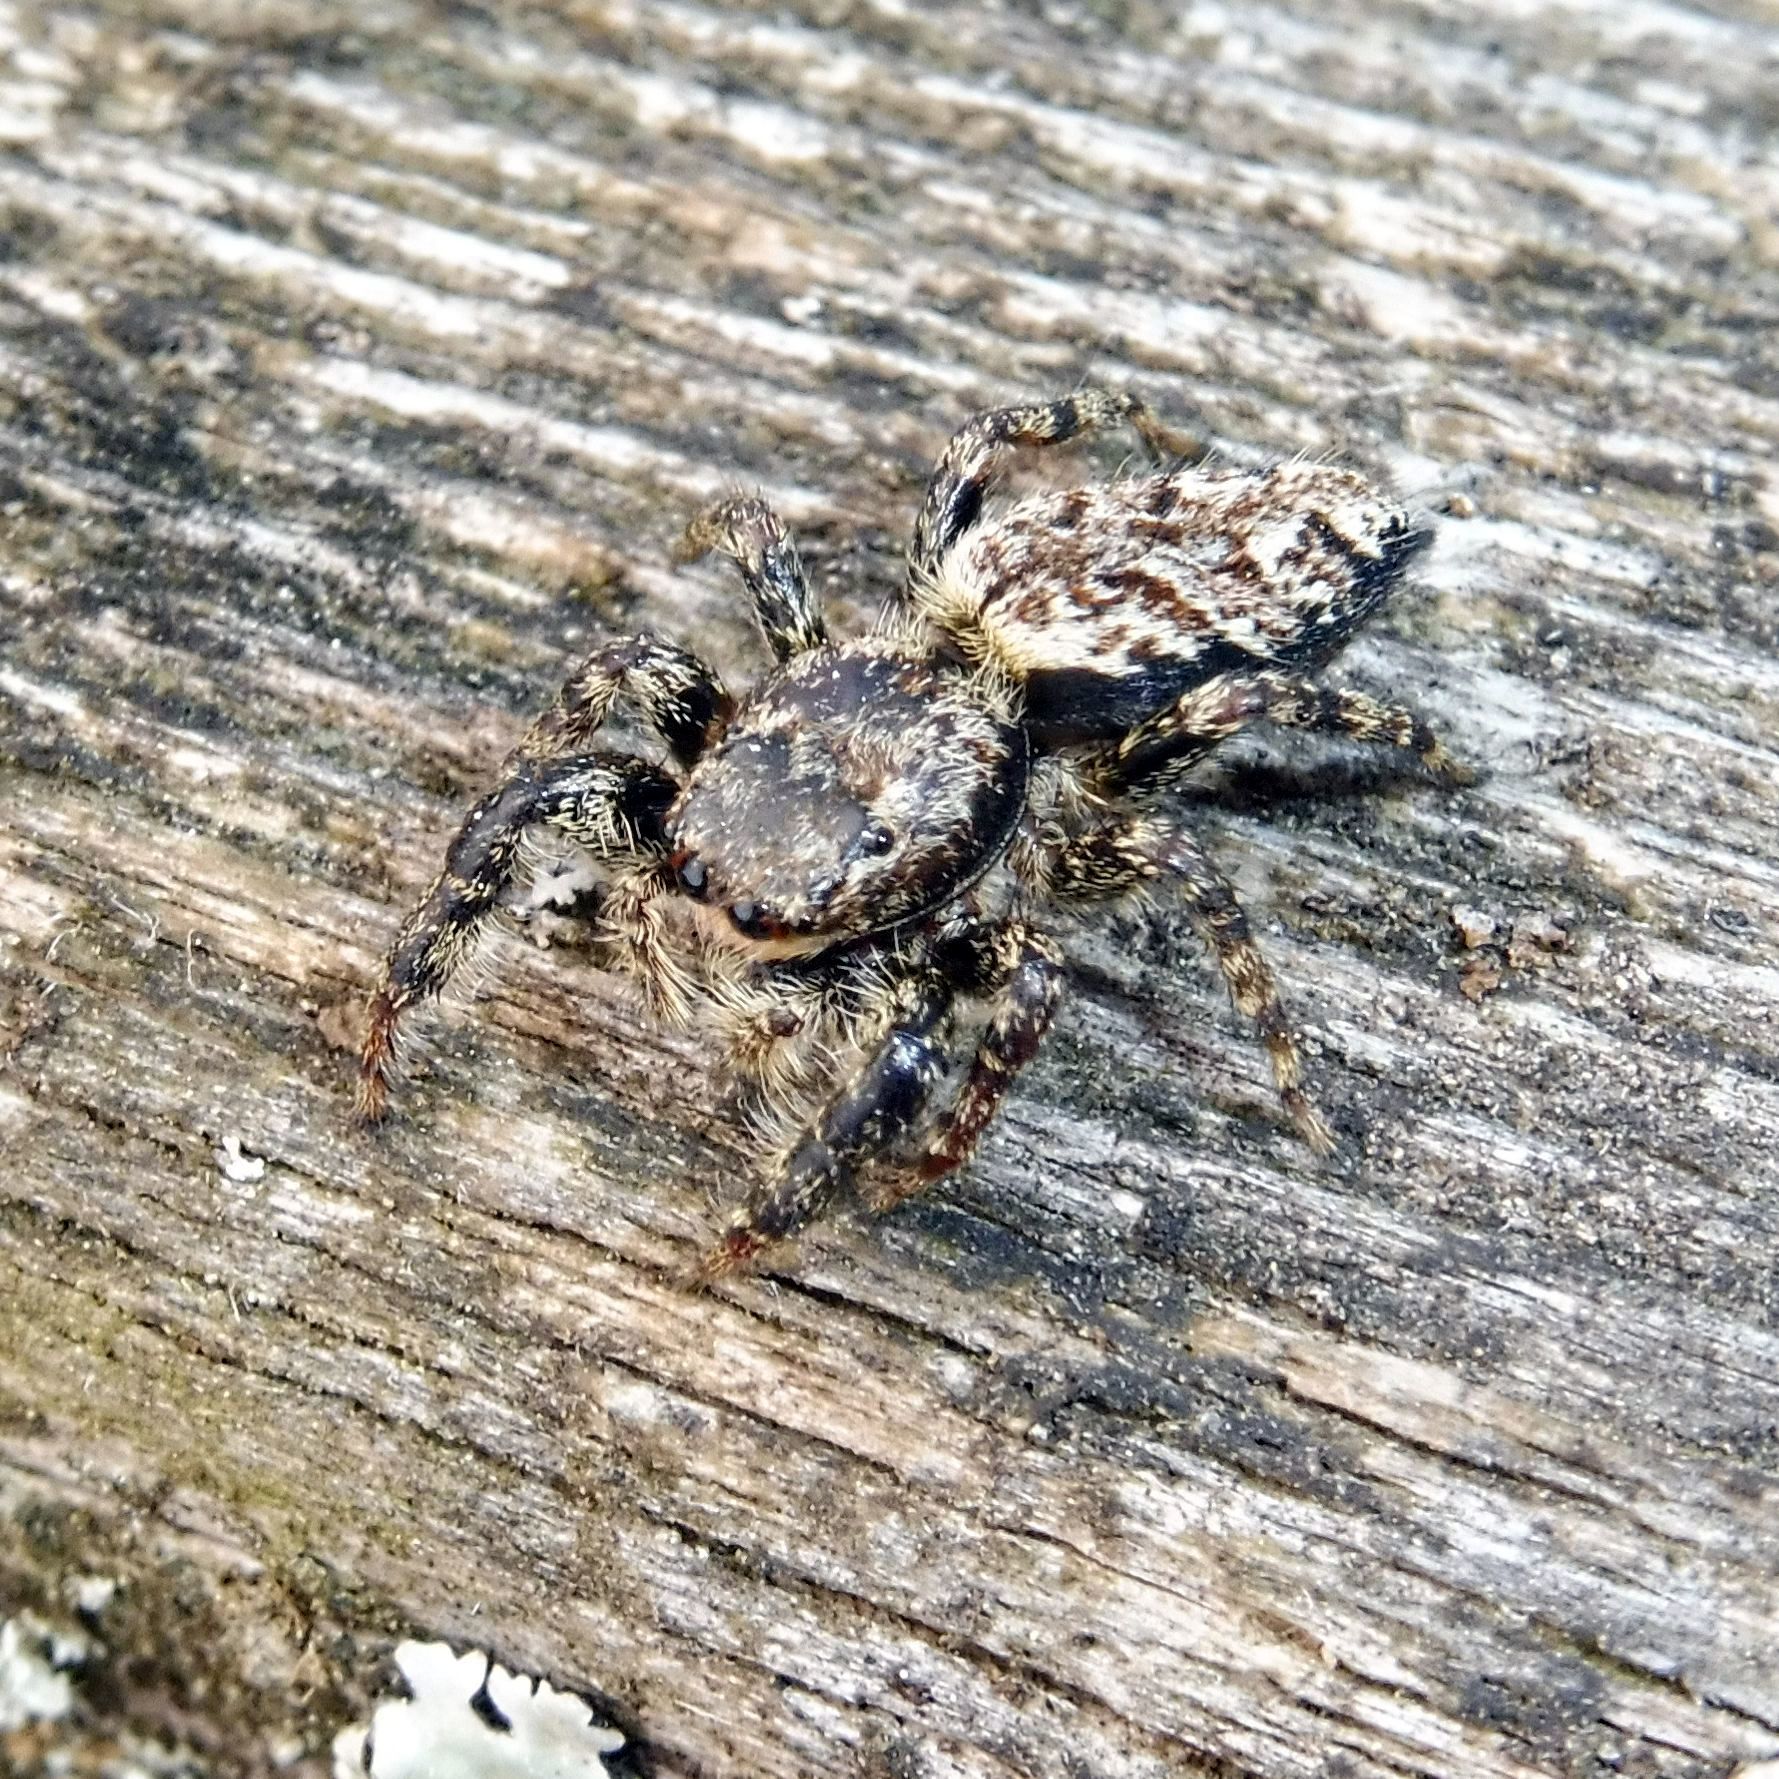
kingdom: Animalia
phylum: Arthropoda
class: Arachnida
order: Araneae
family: Salticidae
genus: Marpissa
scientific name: Marpissa muscosa
